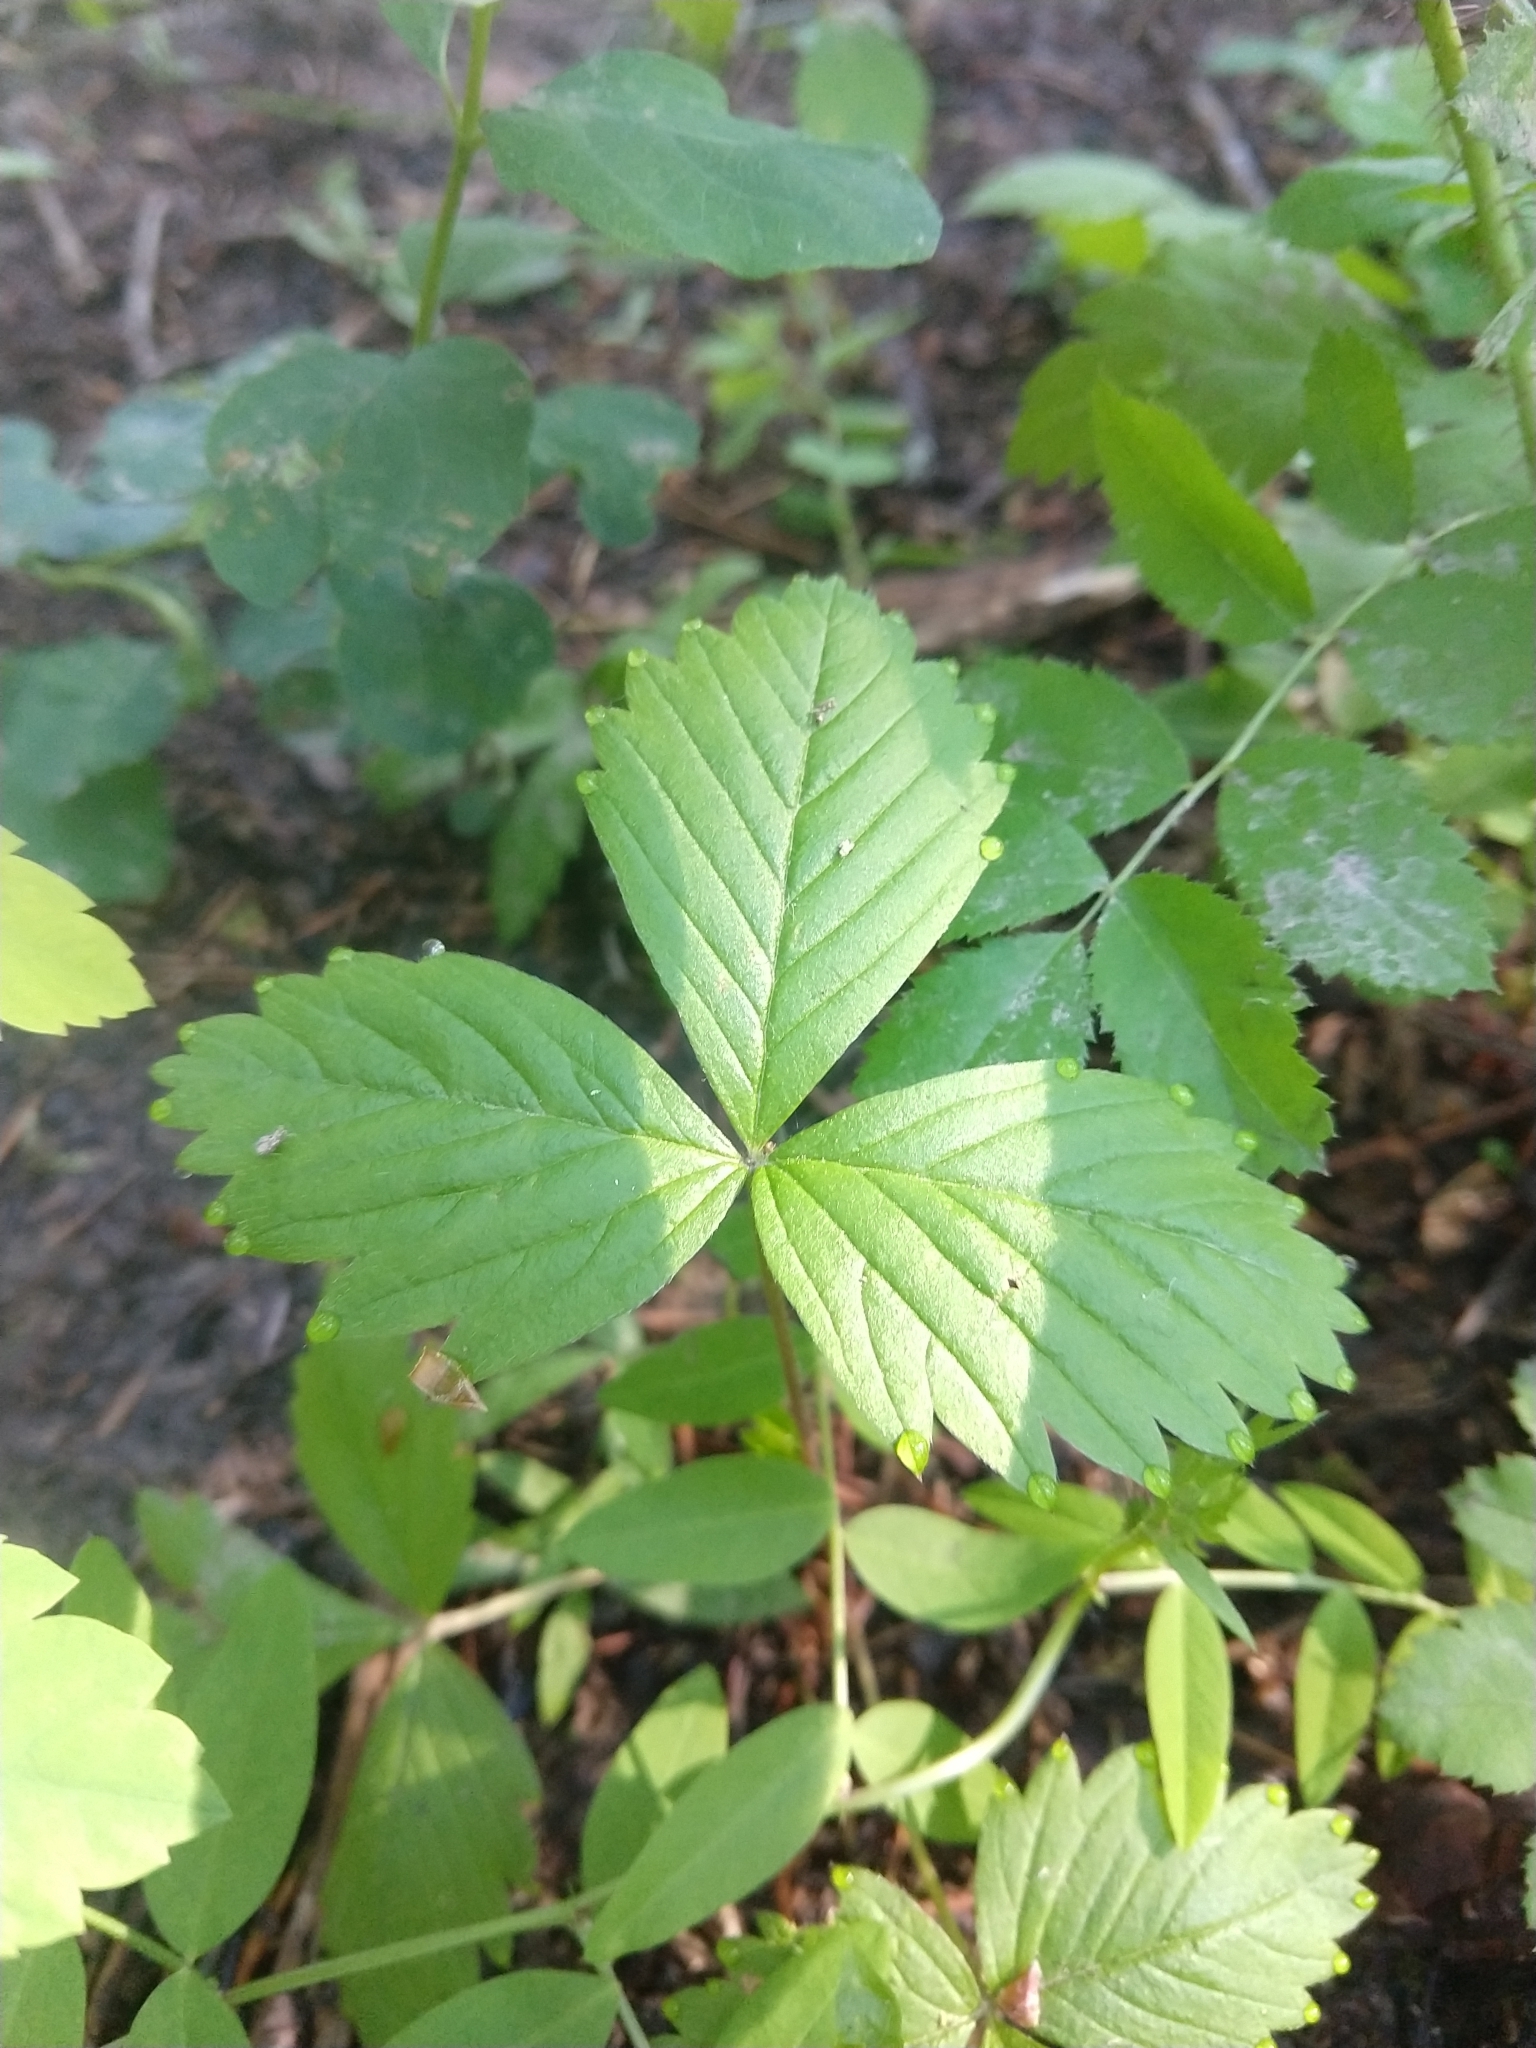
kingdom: Plantae
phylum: Tracheophyta
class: Magnoliopsida
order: Rosales
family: Rosaceae
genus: Fragaria
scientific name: Fragaria vesca
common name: Wild strawberry
